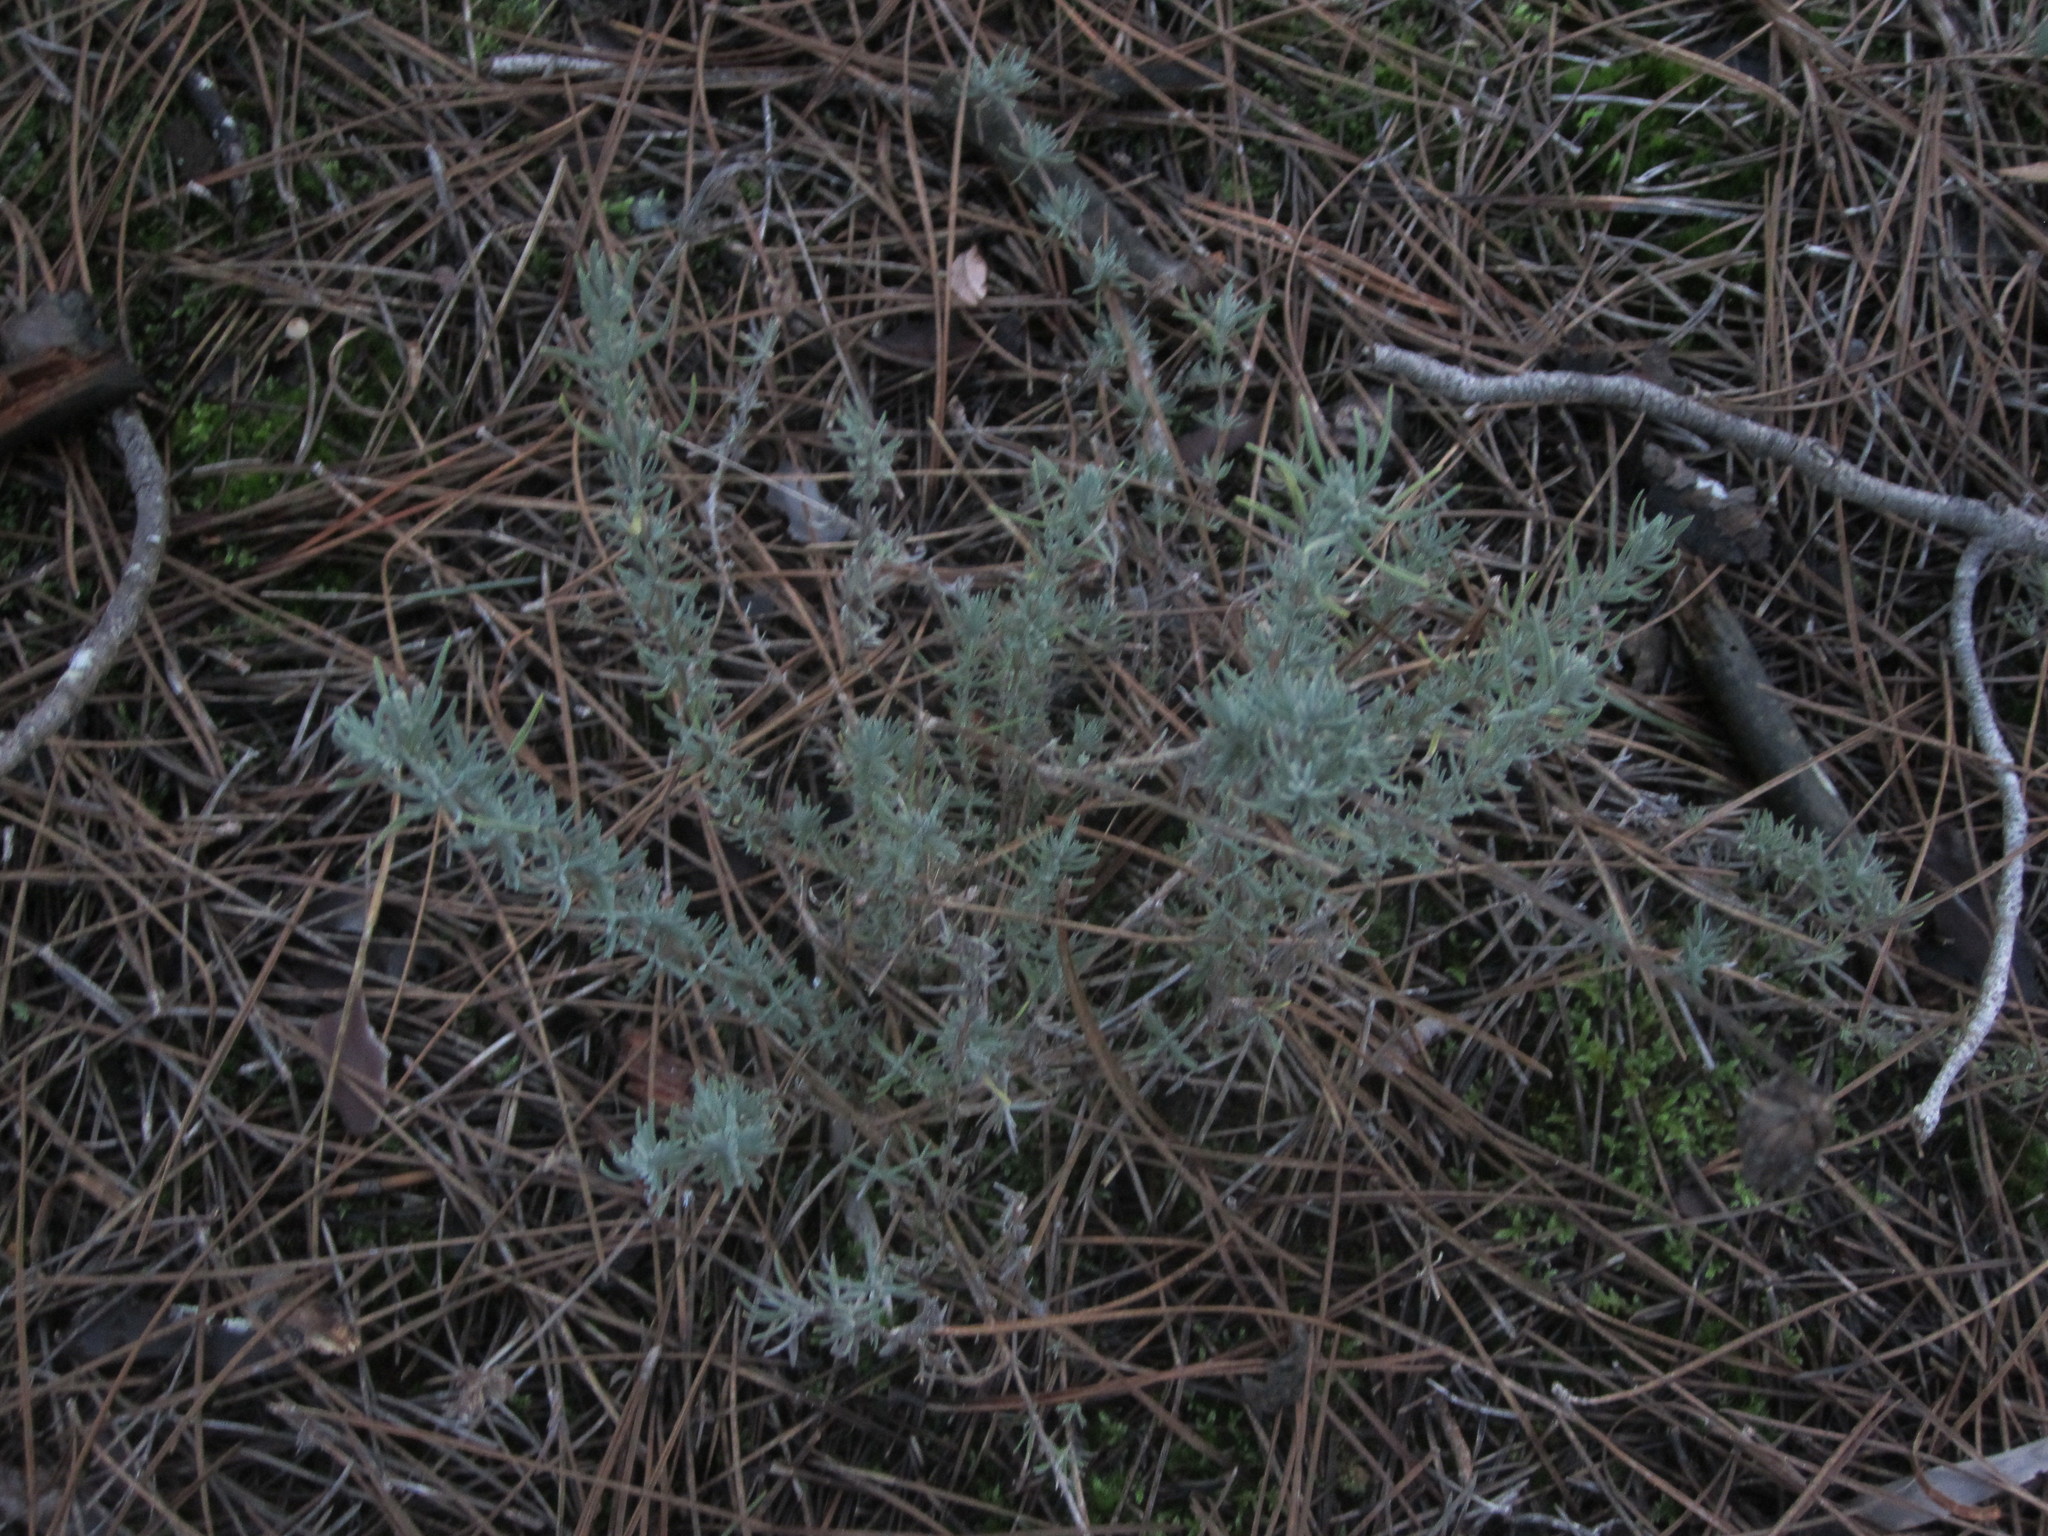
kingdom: Plantae
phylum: Tracheophyta
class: Magnoliopsida
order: Lamiales
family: Lamiaceae
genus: Lavandula
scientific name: Lavandula pedunculata
